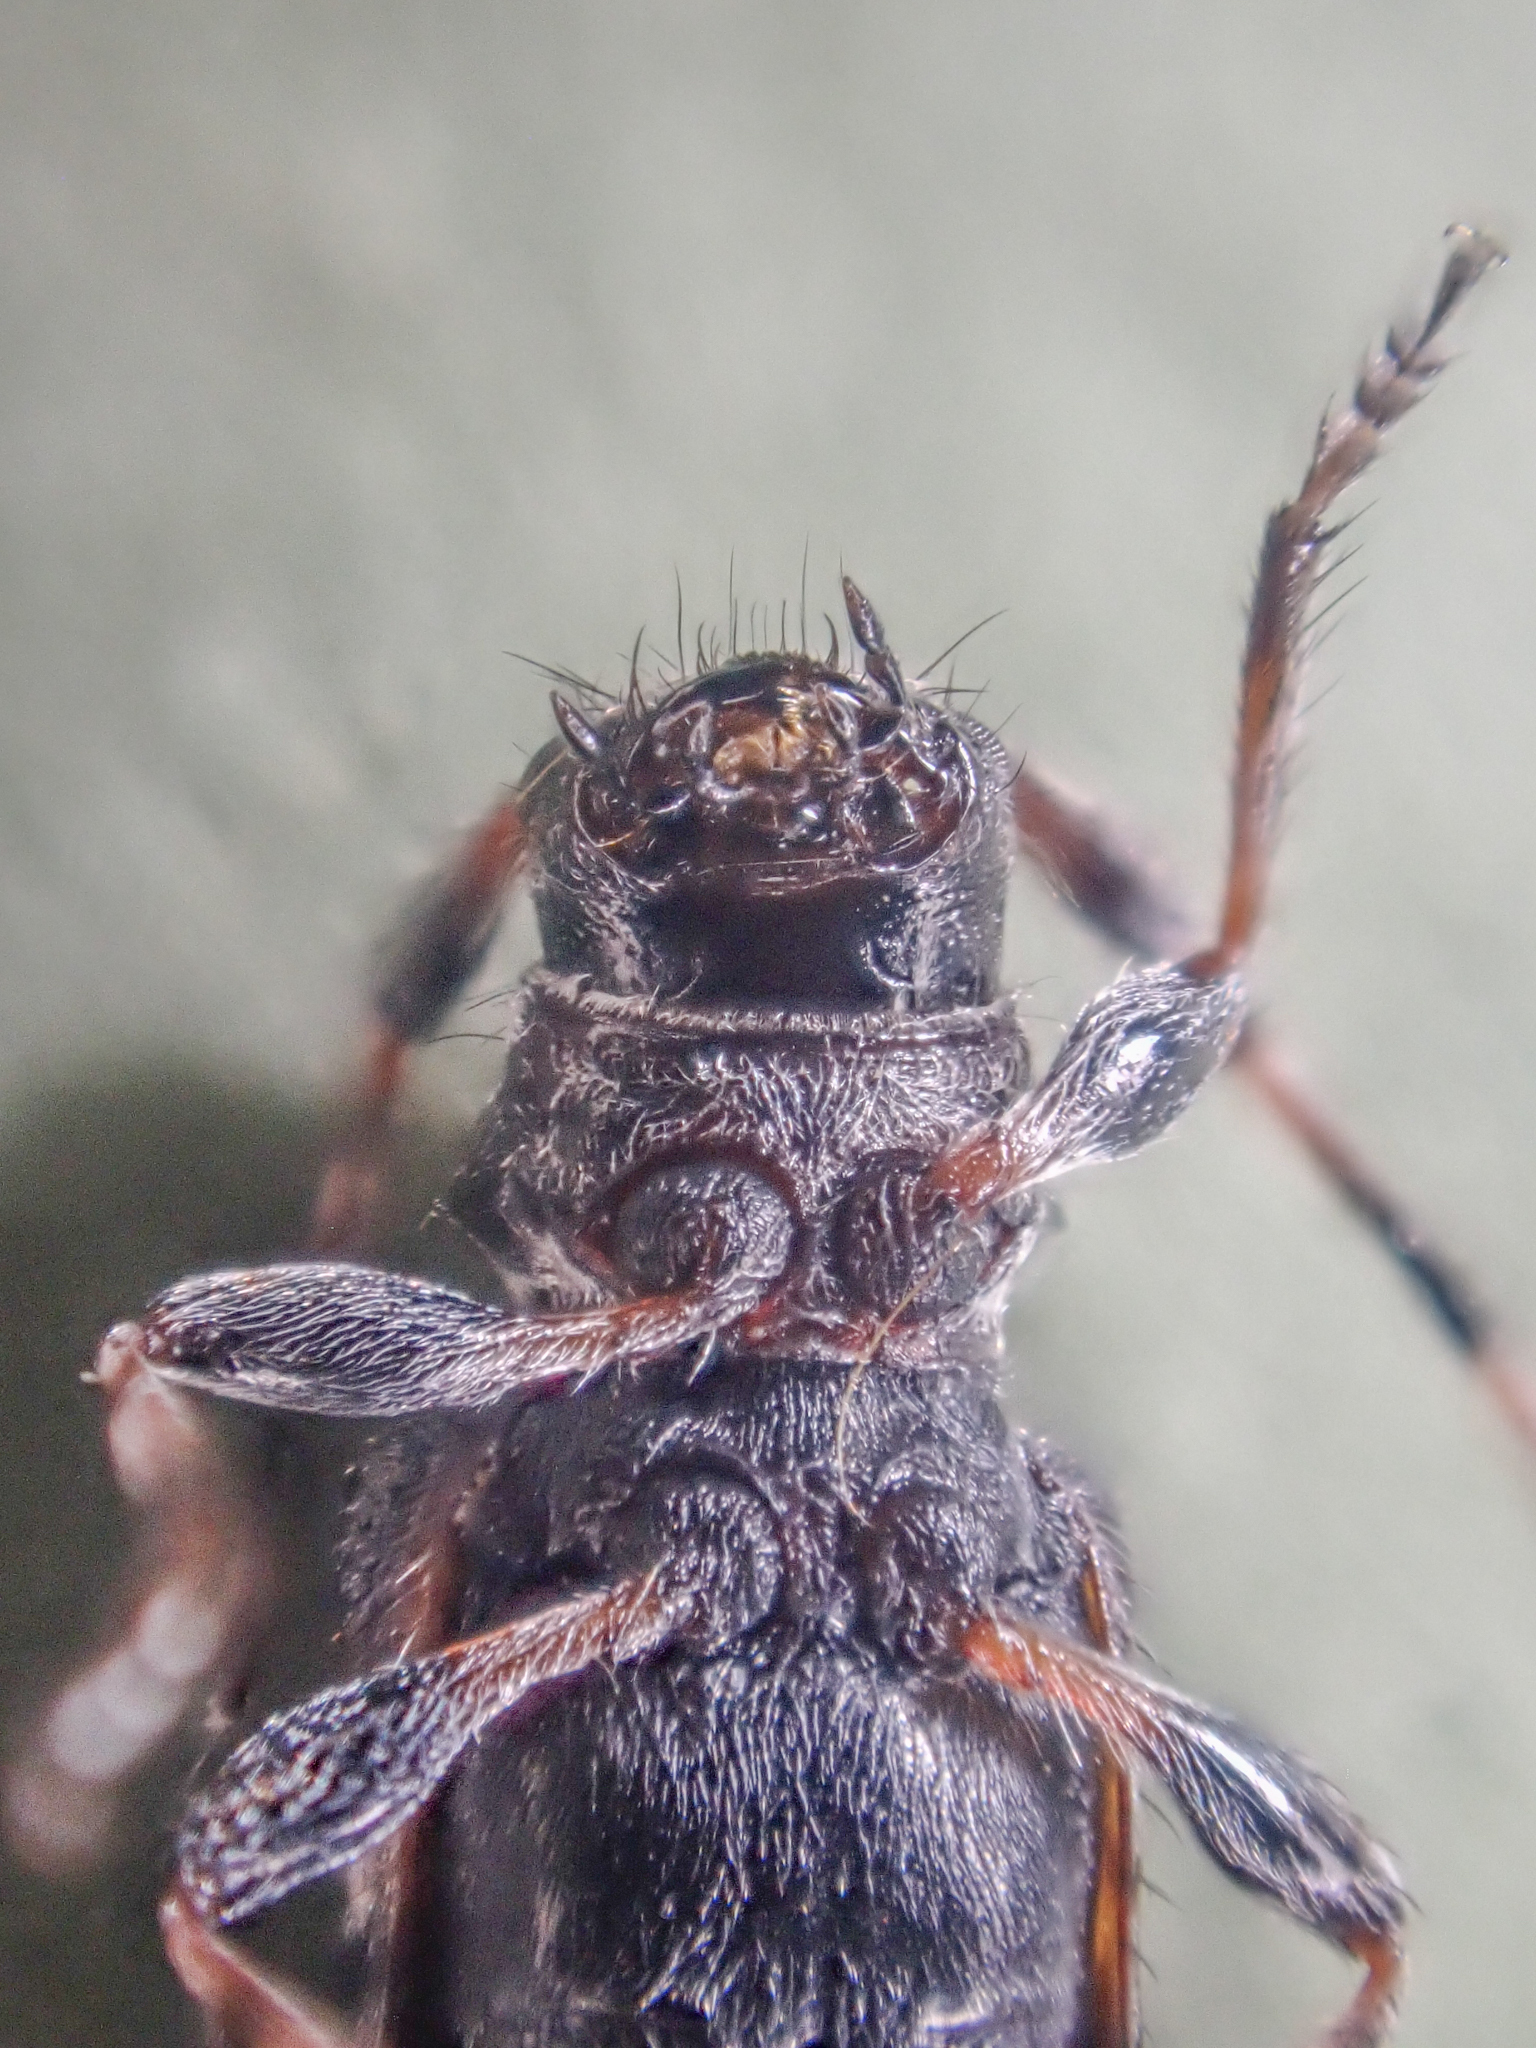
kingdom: Animalia
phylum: Arthropoda
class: Insecta
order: Coleoptera
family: Cerambycidae
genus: Pogonocherus
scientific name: Pogonocherus mixtus
